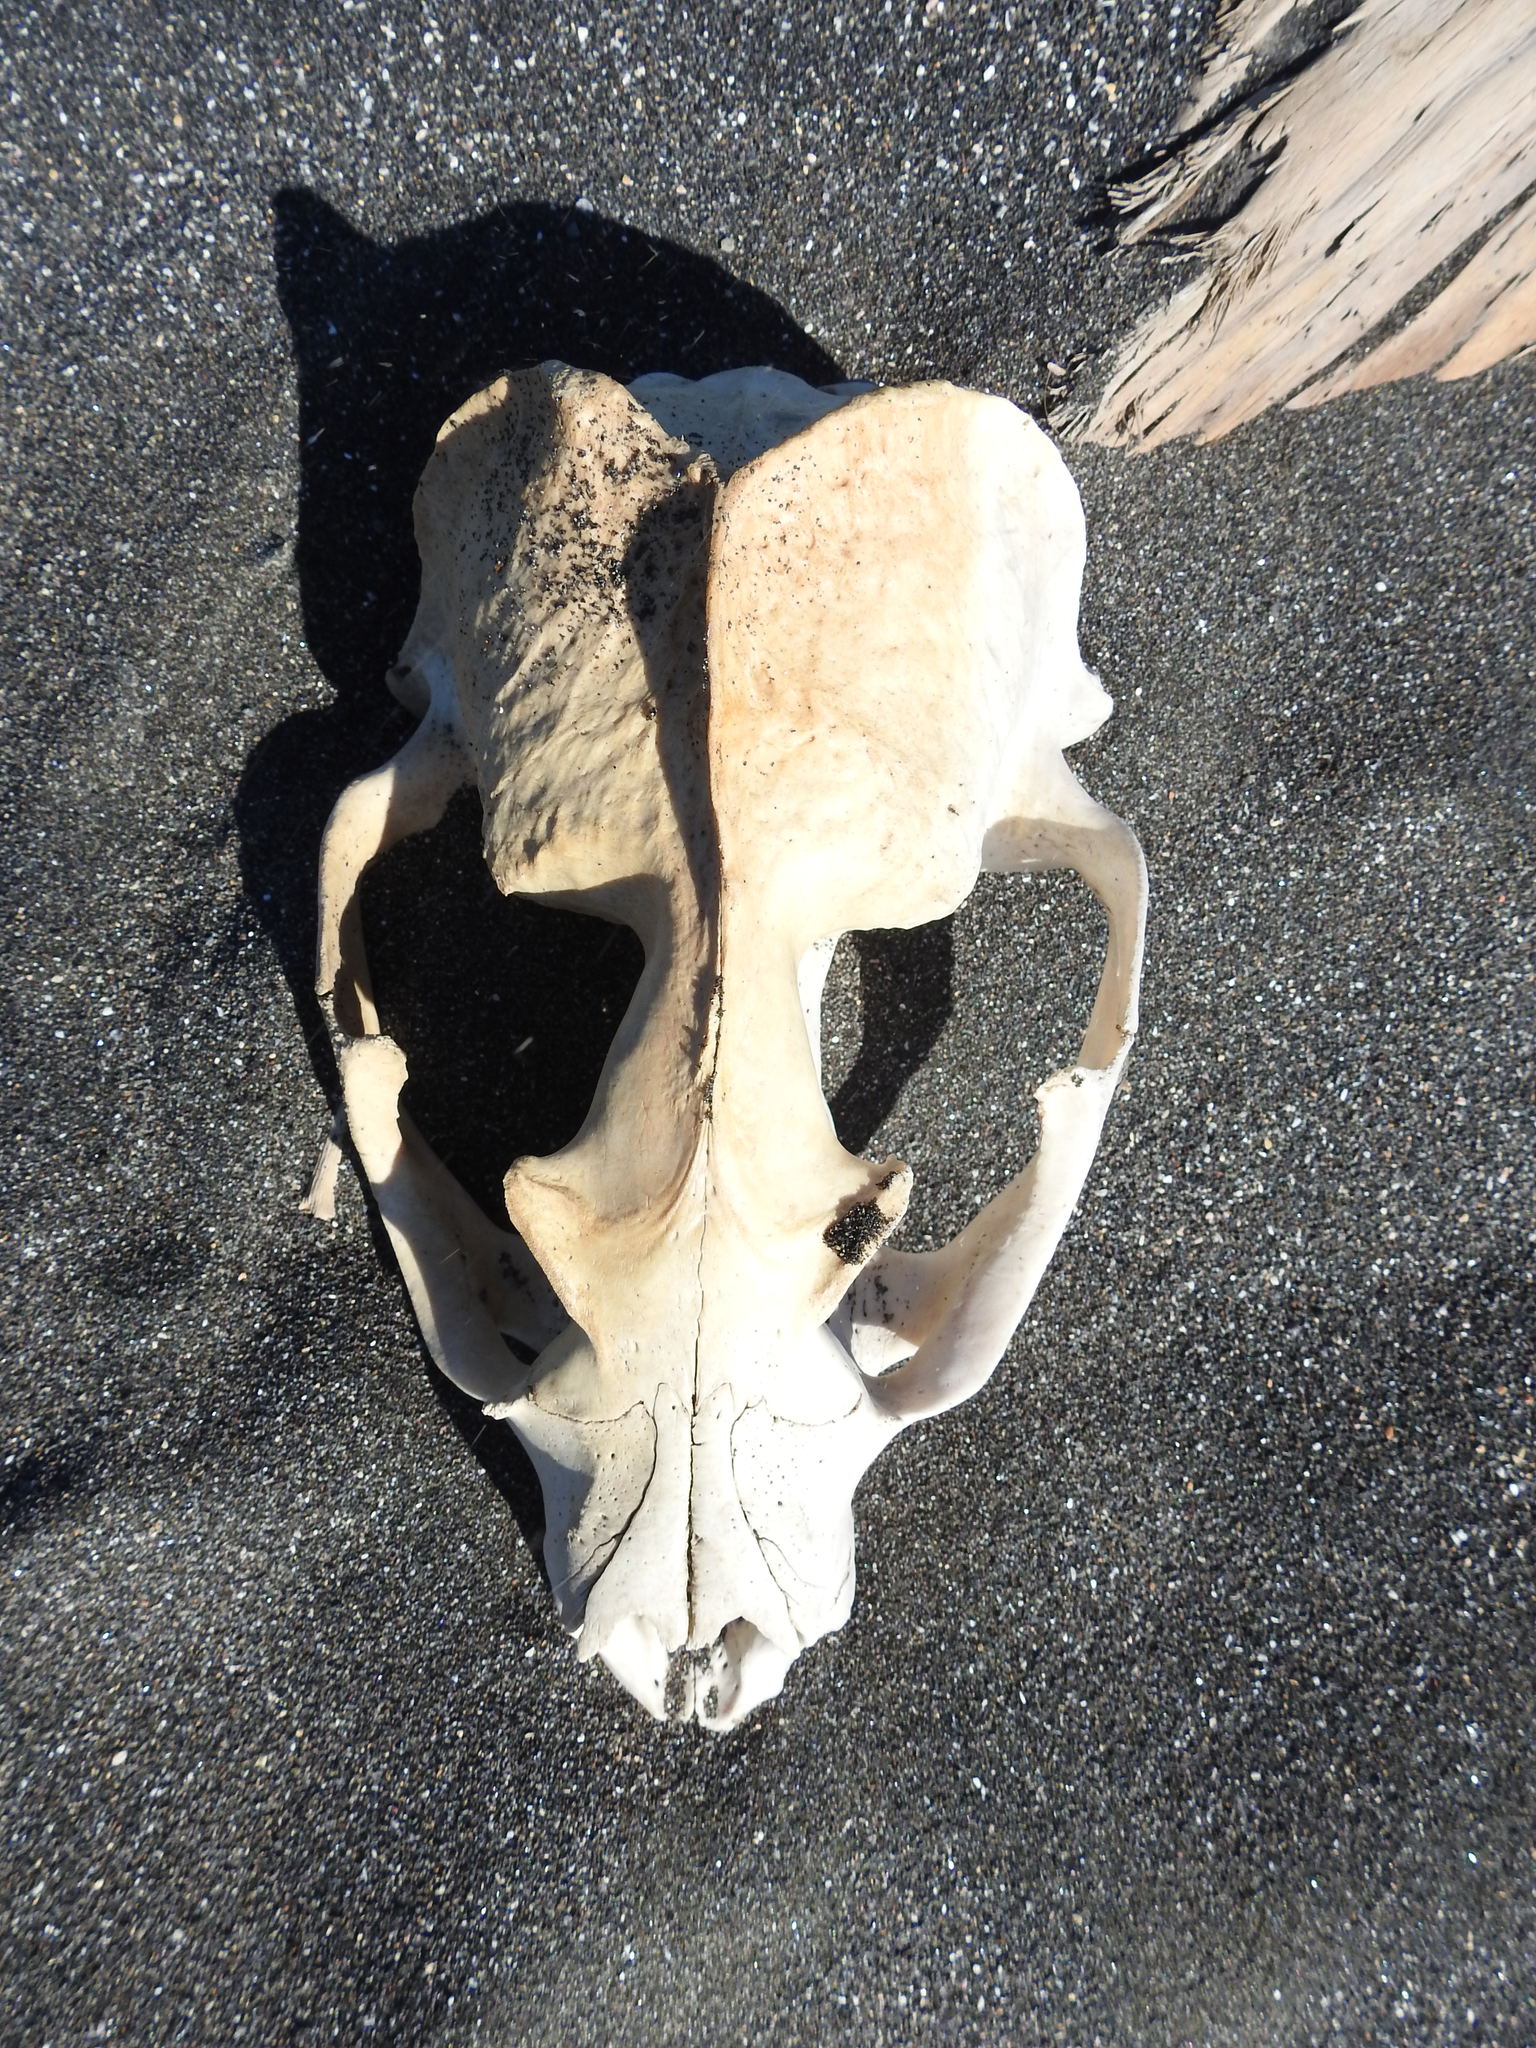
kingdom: Animalia
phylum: Chordata
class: Mammalia
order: Carnivora
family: Otariidae
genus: Arctocephalus
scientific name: Arctocephalus forsteri
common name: New zealand fur seal
